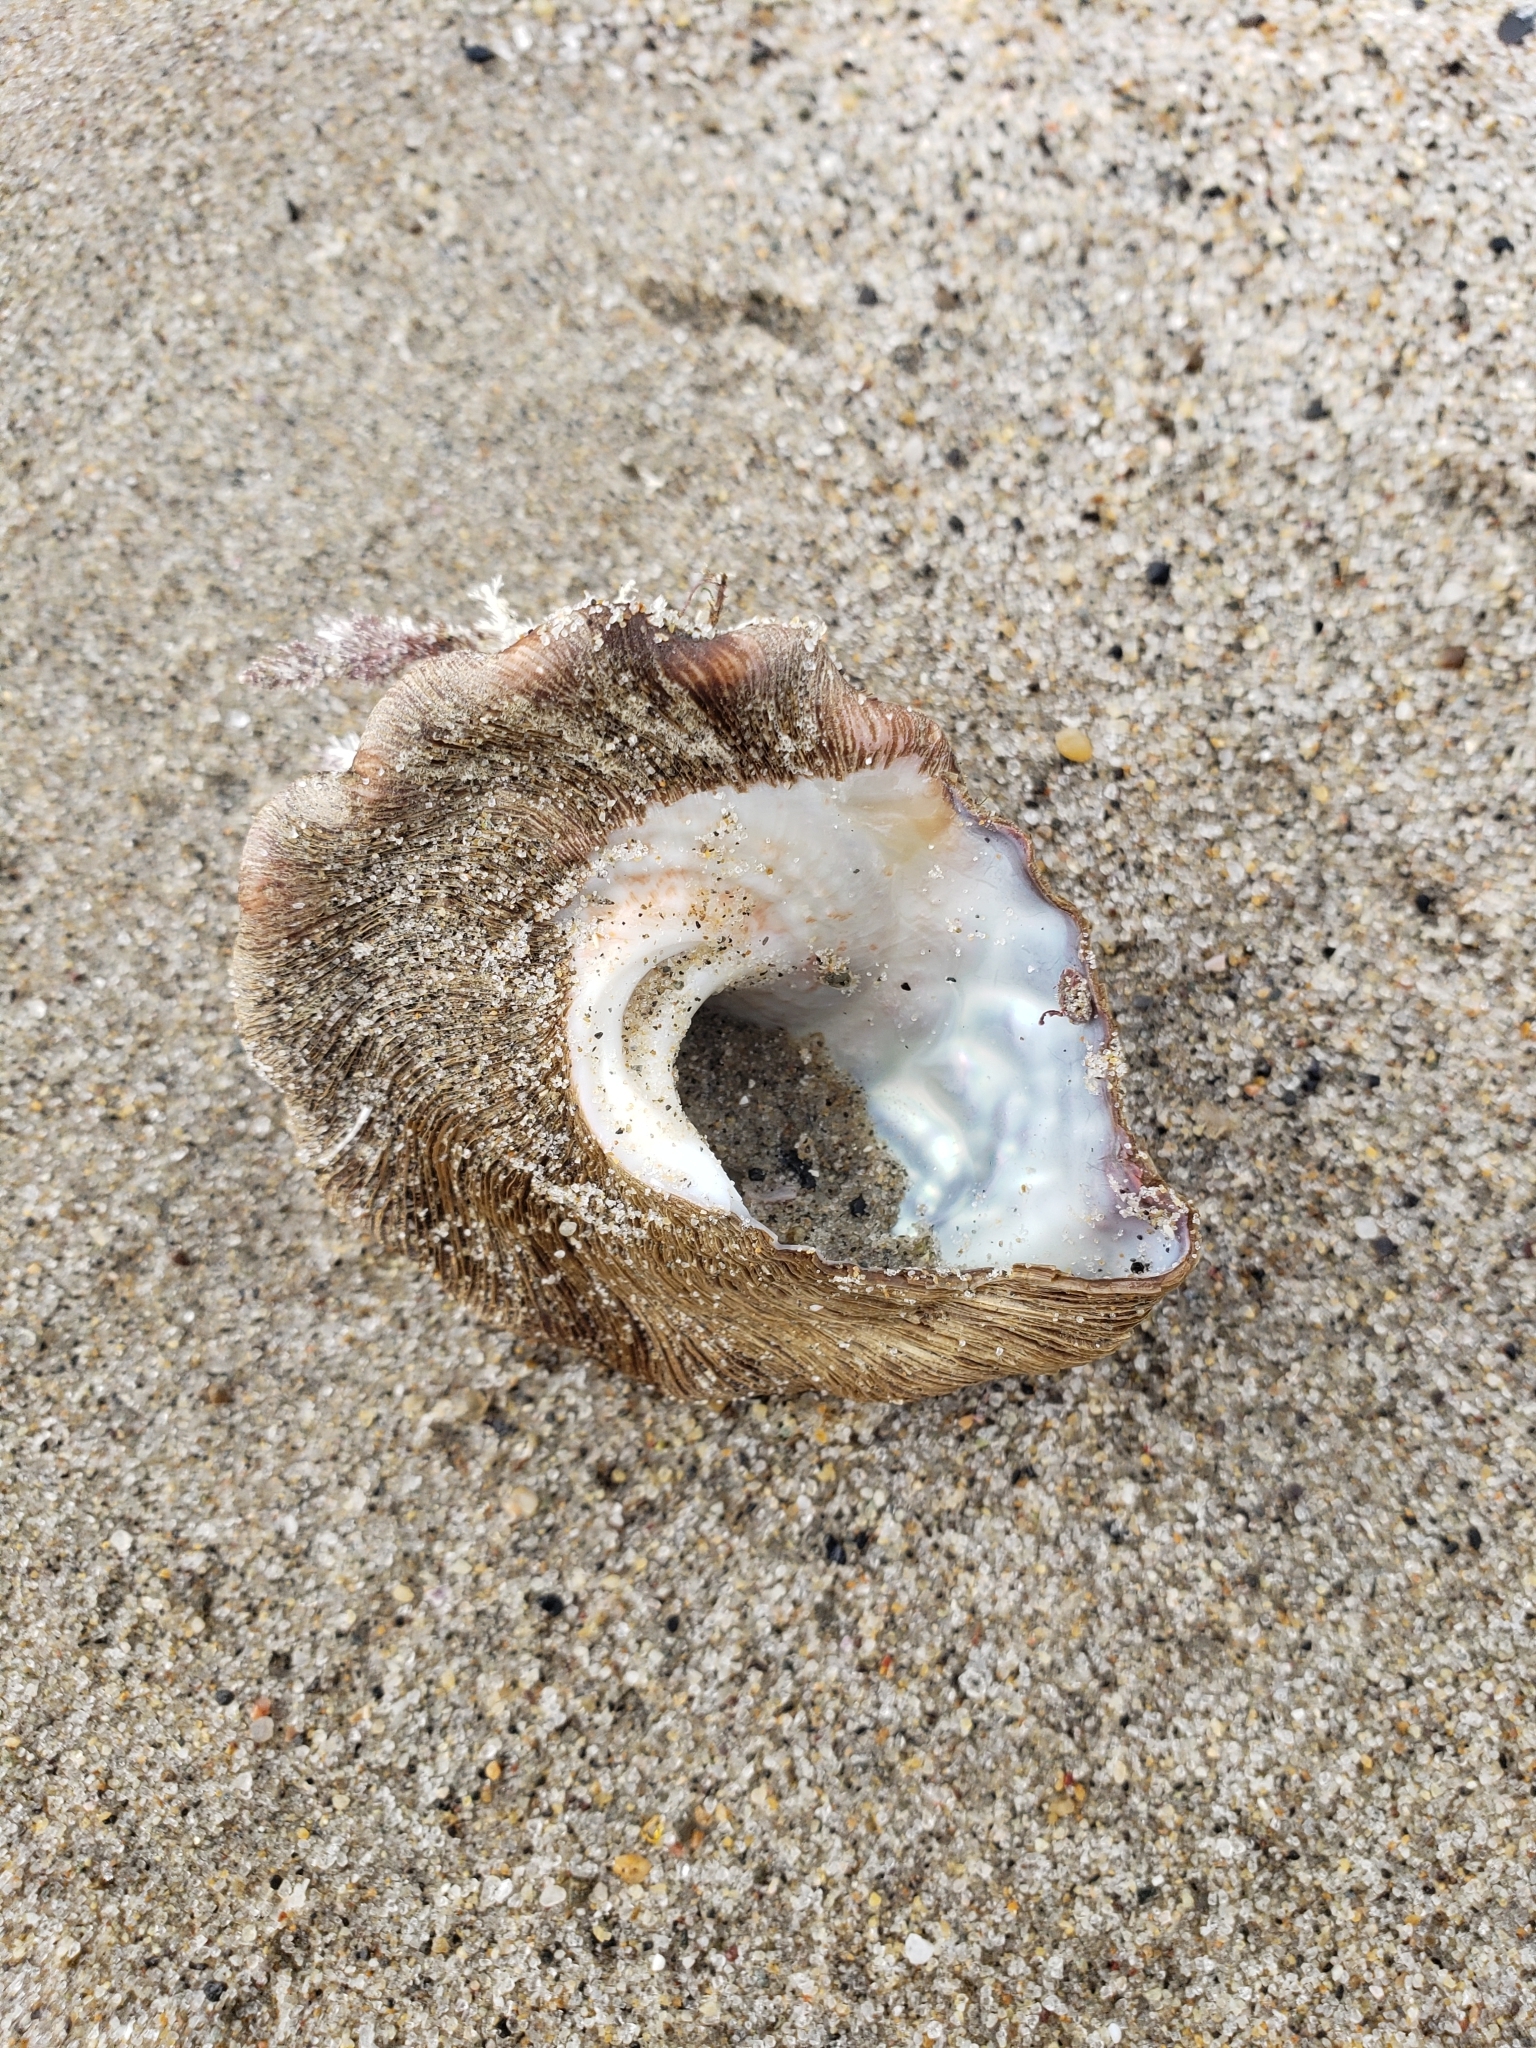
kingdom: Animalia
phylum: Mollusca
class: Gastropoda
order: Trochida
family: Turbinidae
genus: Megastraea
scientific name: Megastraea undosa
